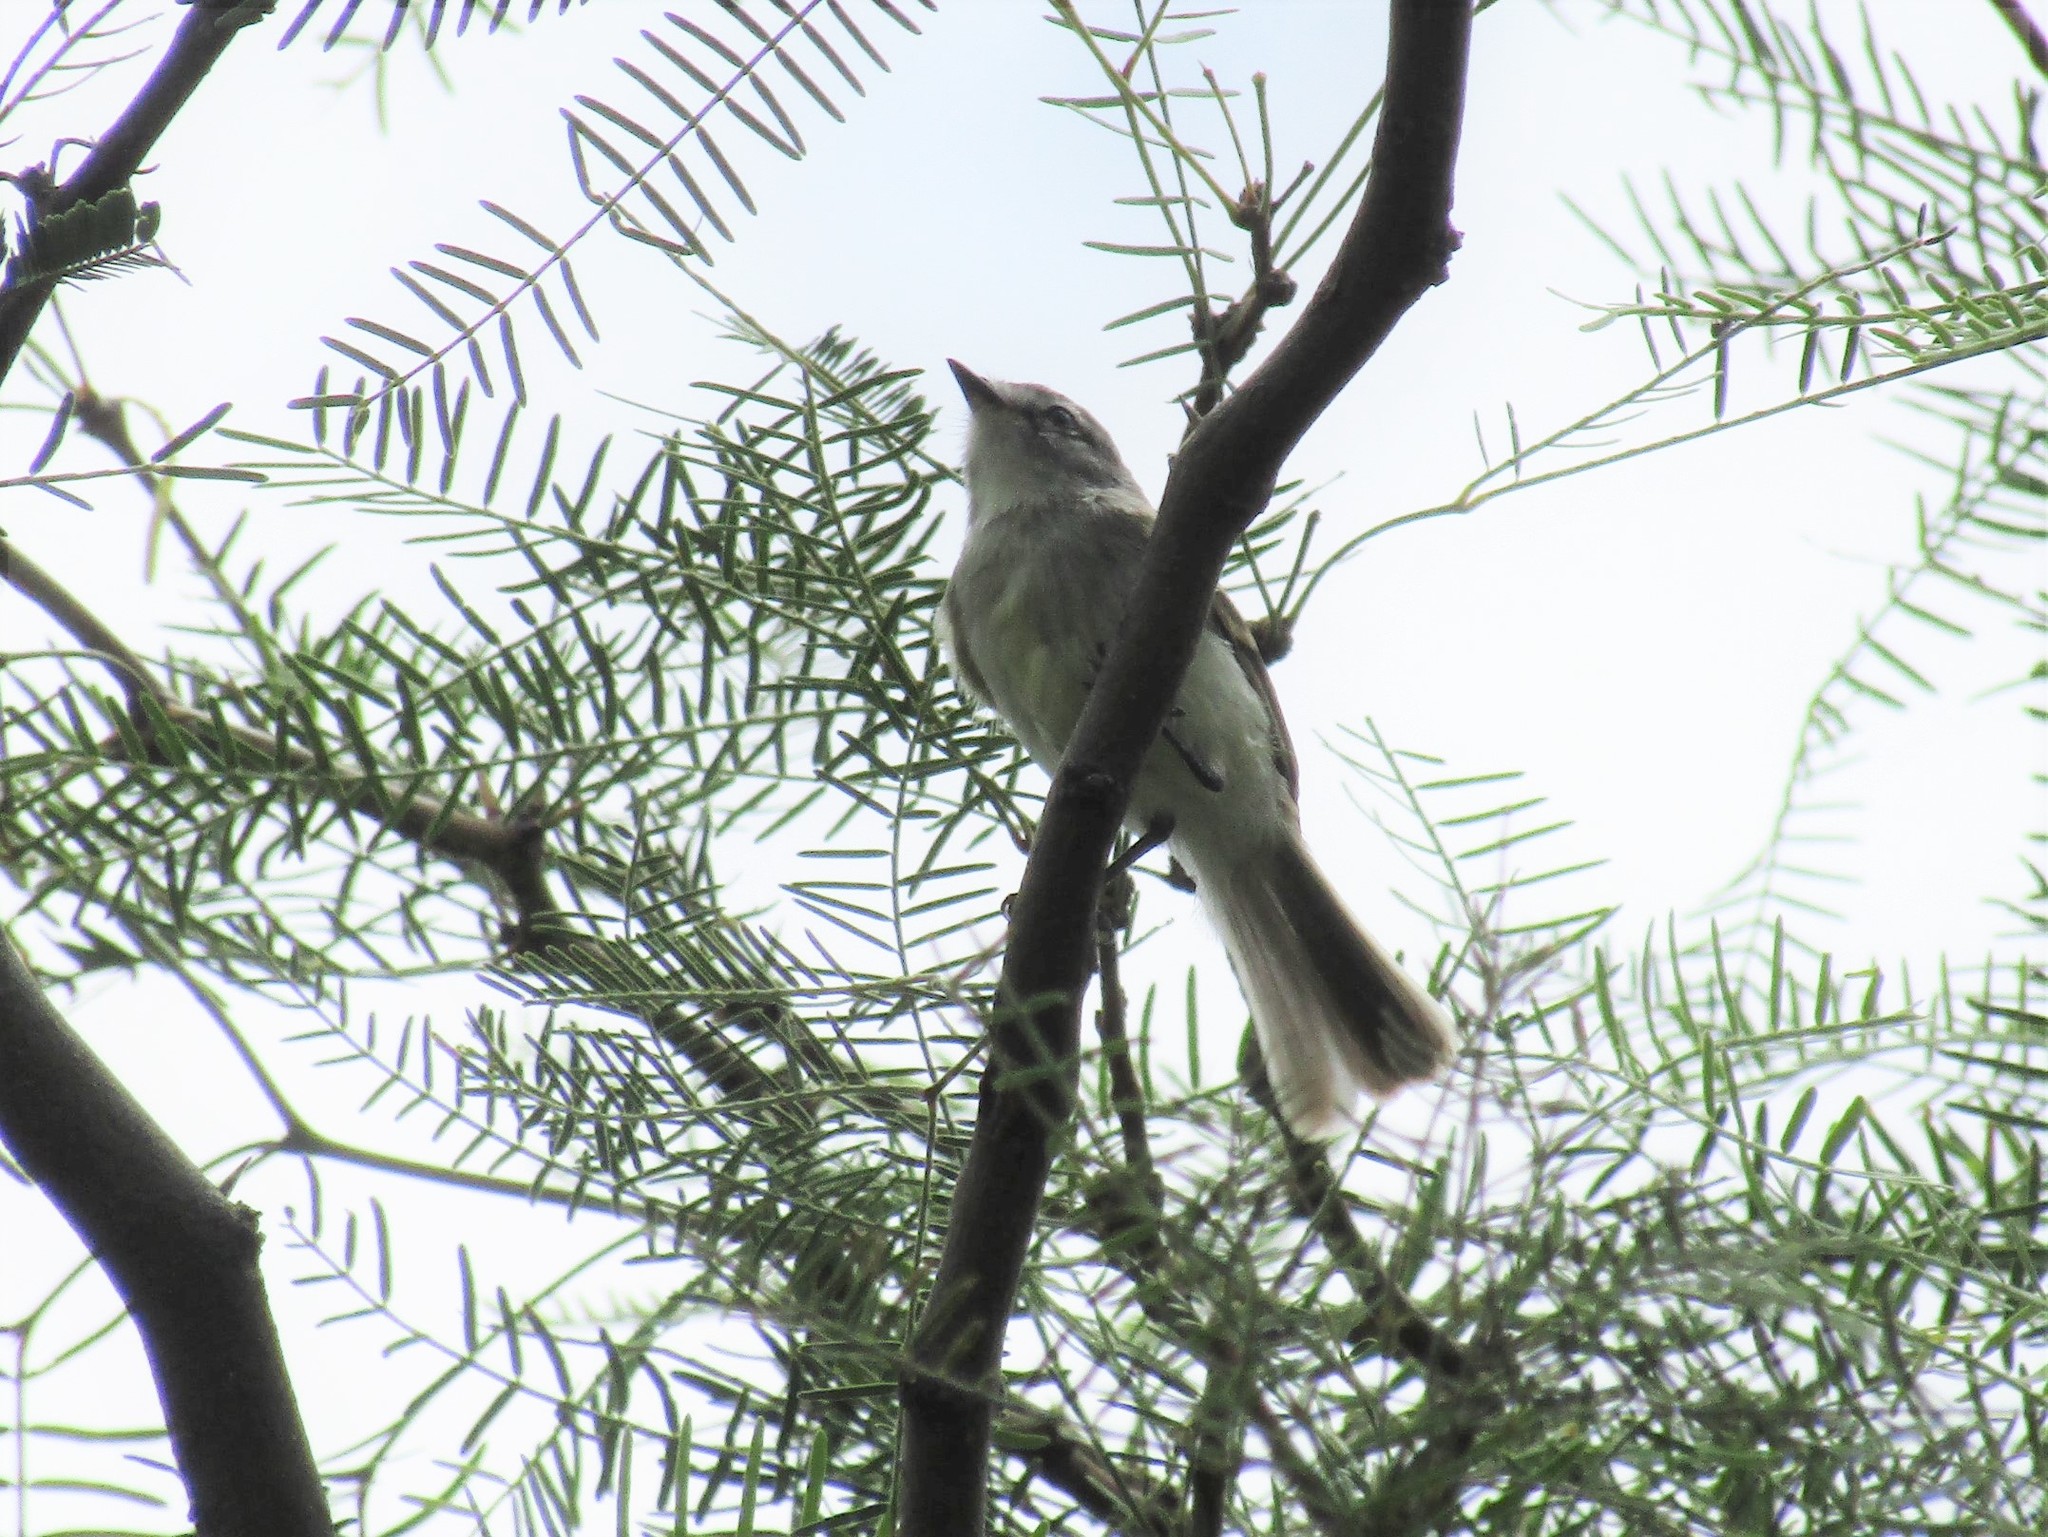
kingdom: Animalia
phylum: Chordata
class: Aves
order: Passeriformes
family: Tyrannidae
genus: Serpophaga
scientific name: Serpophaga subcristata
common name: White-crested tyrannulet
